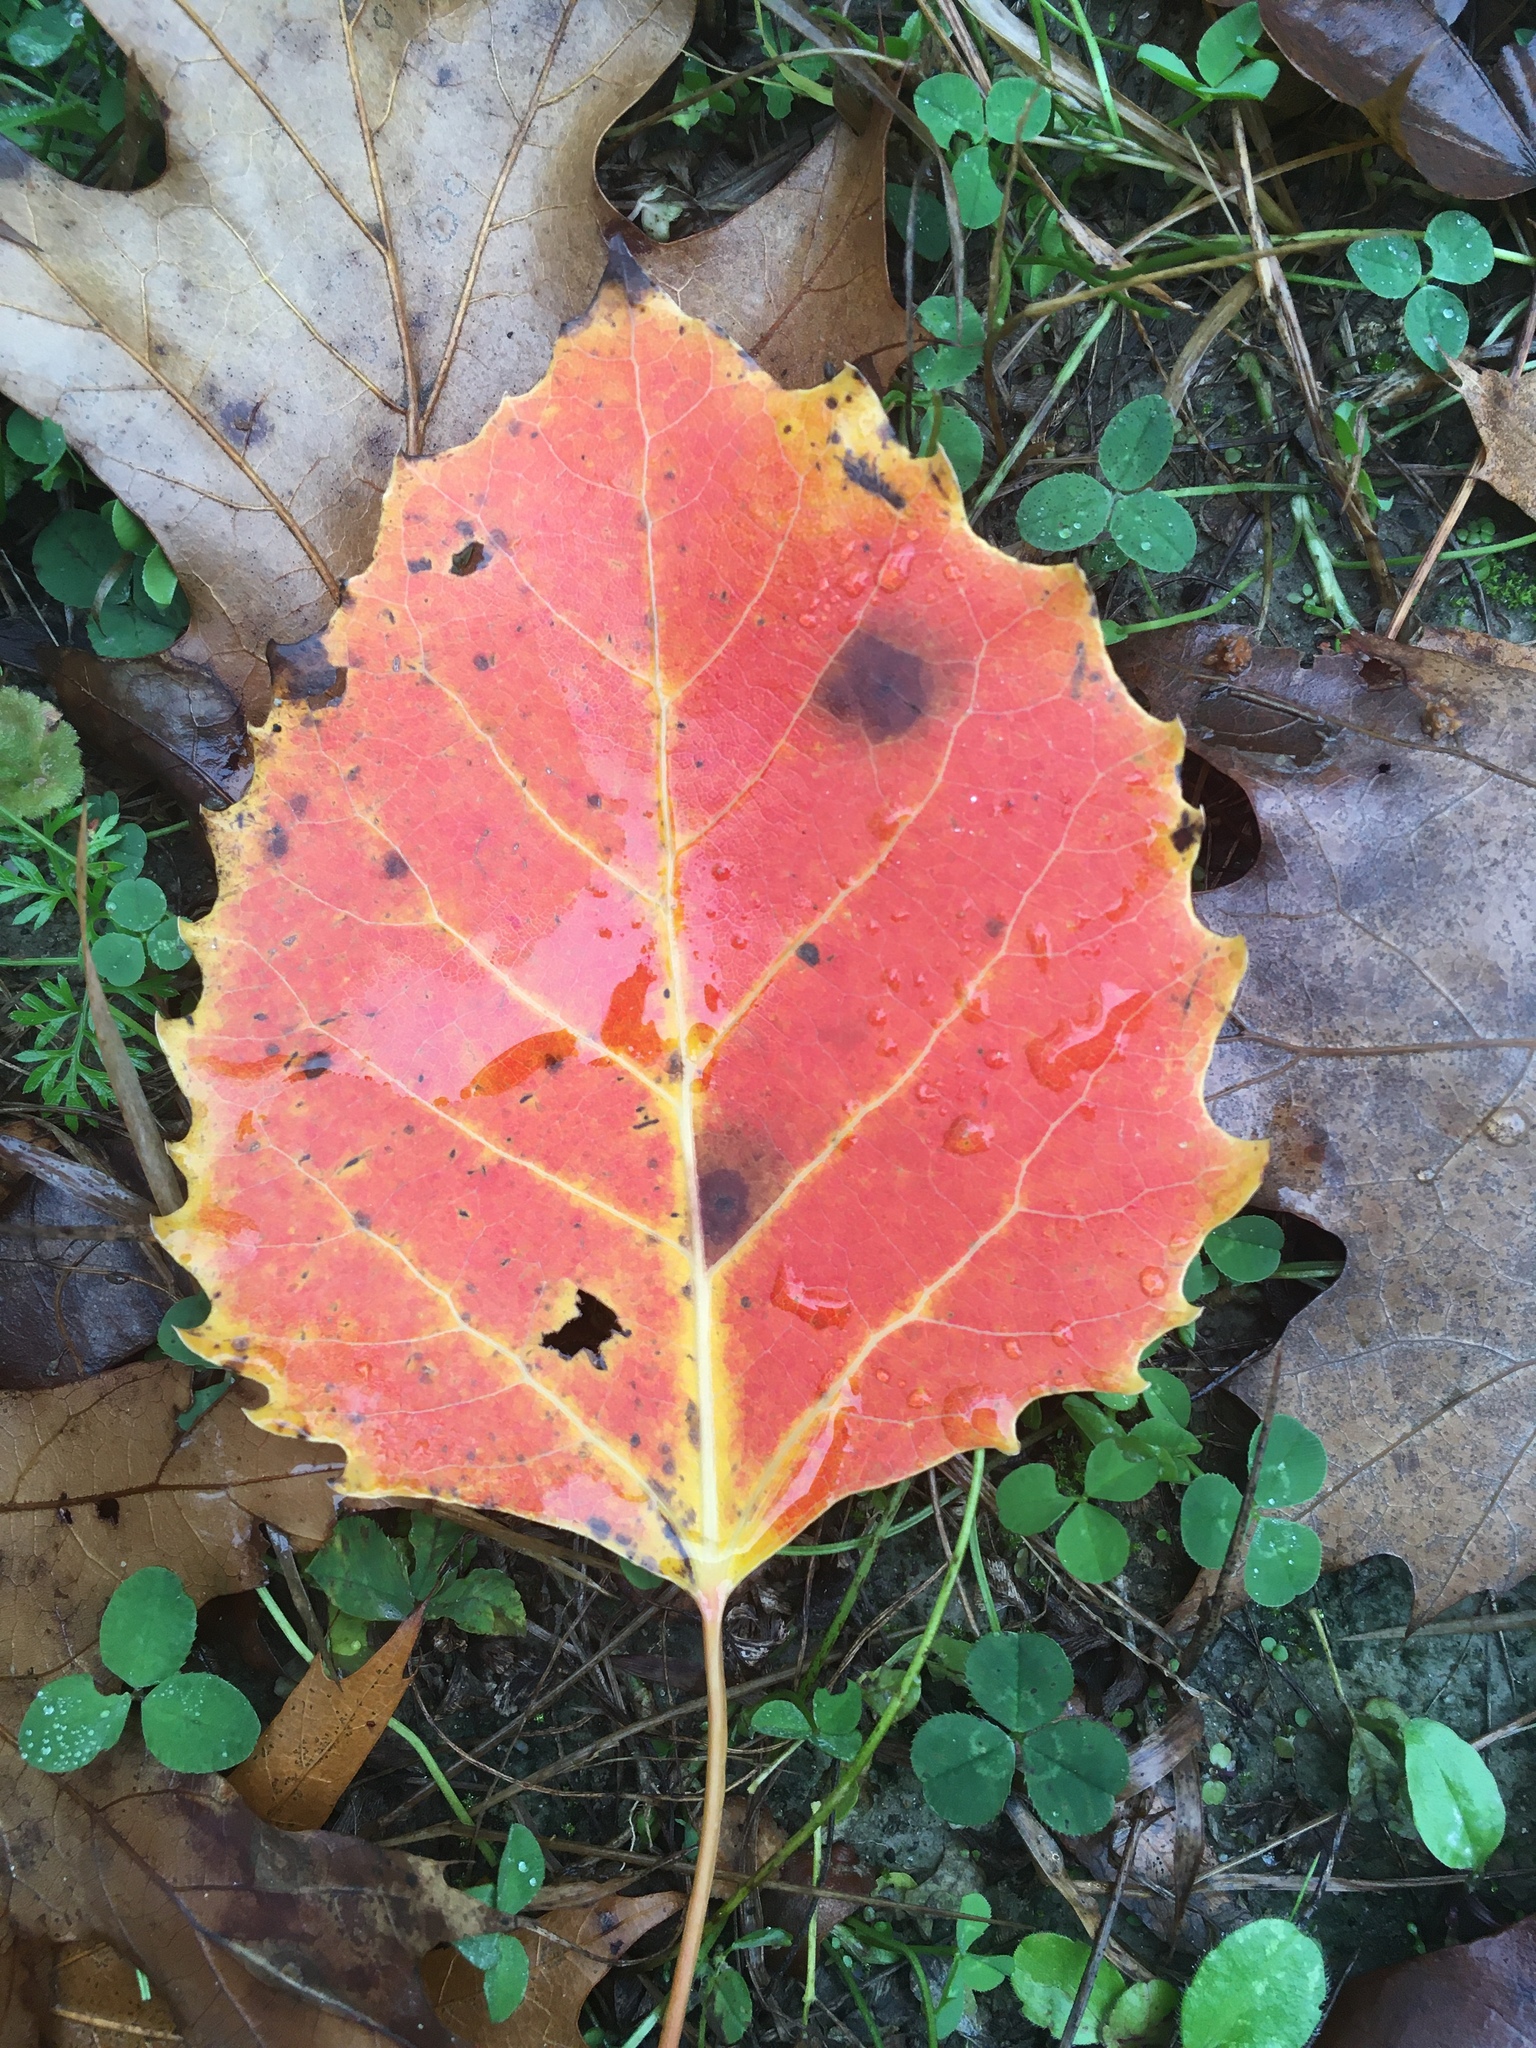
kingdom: Plantae
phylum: Tracheophyta
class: Magnoliopsida
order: Malpighiales
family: Salicaceae
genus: Populus
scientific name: Populus grandidentata
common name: Bigtooth aspen
